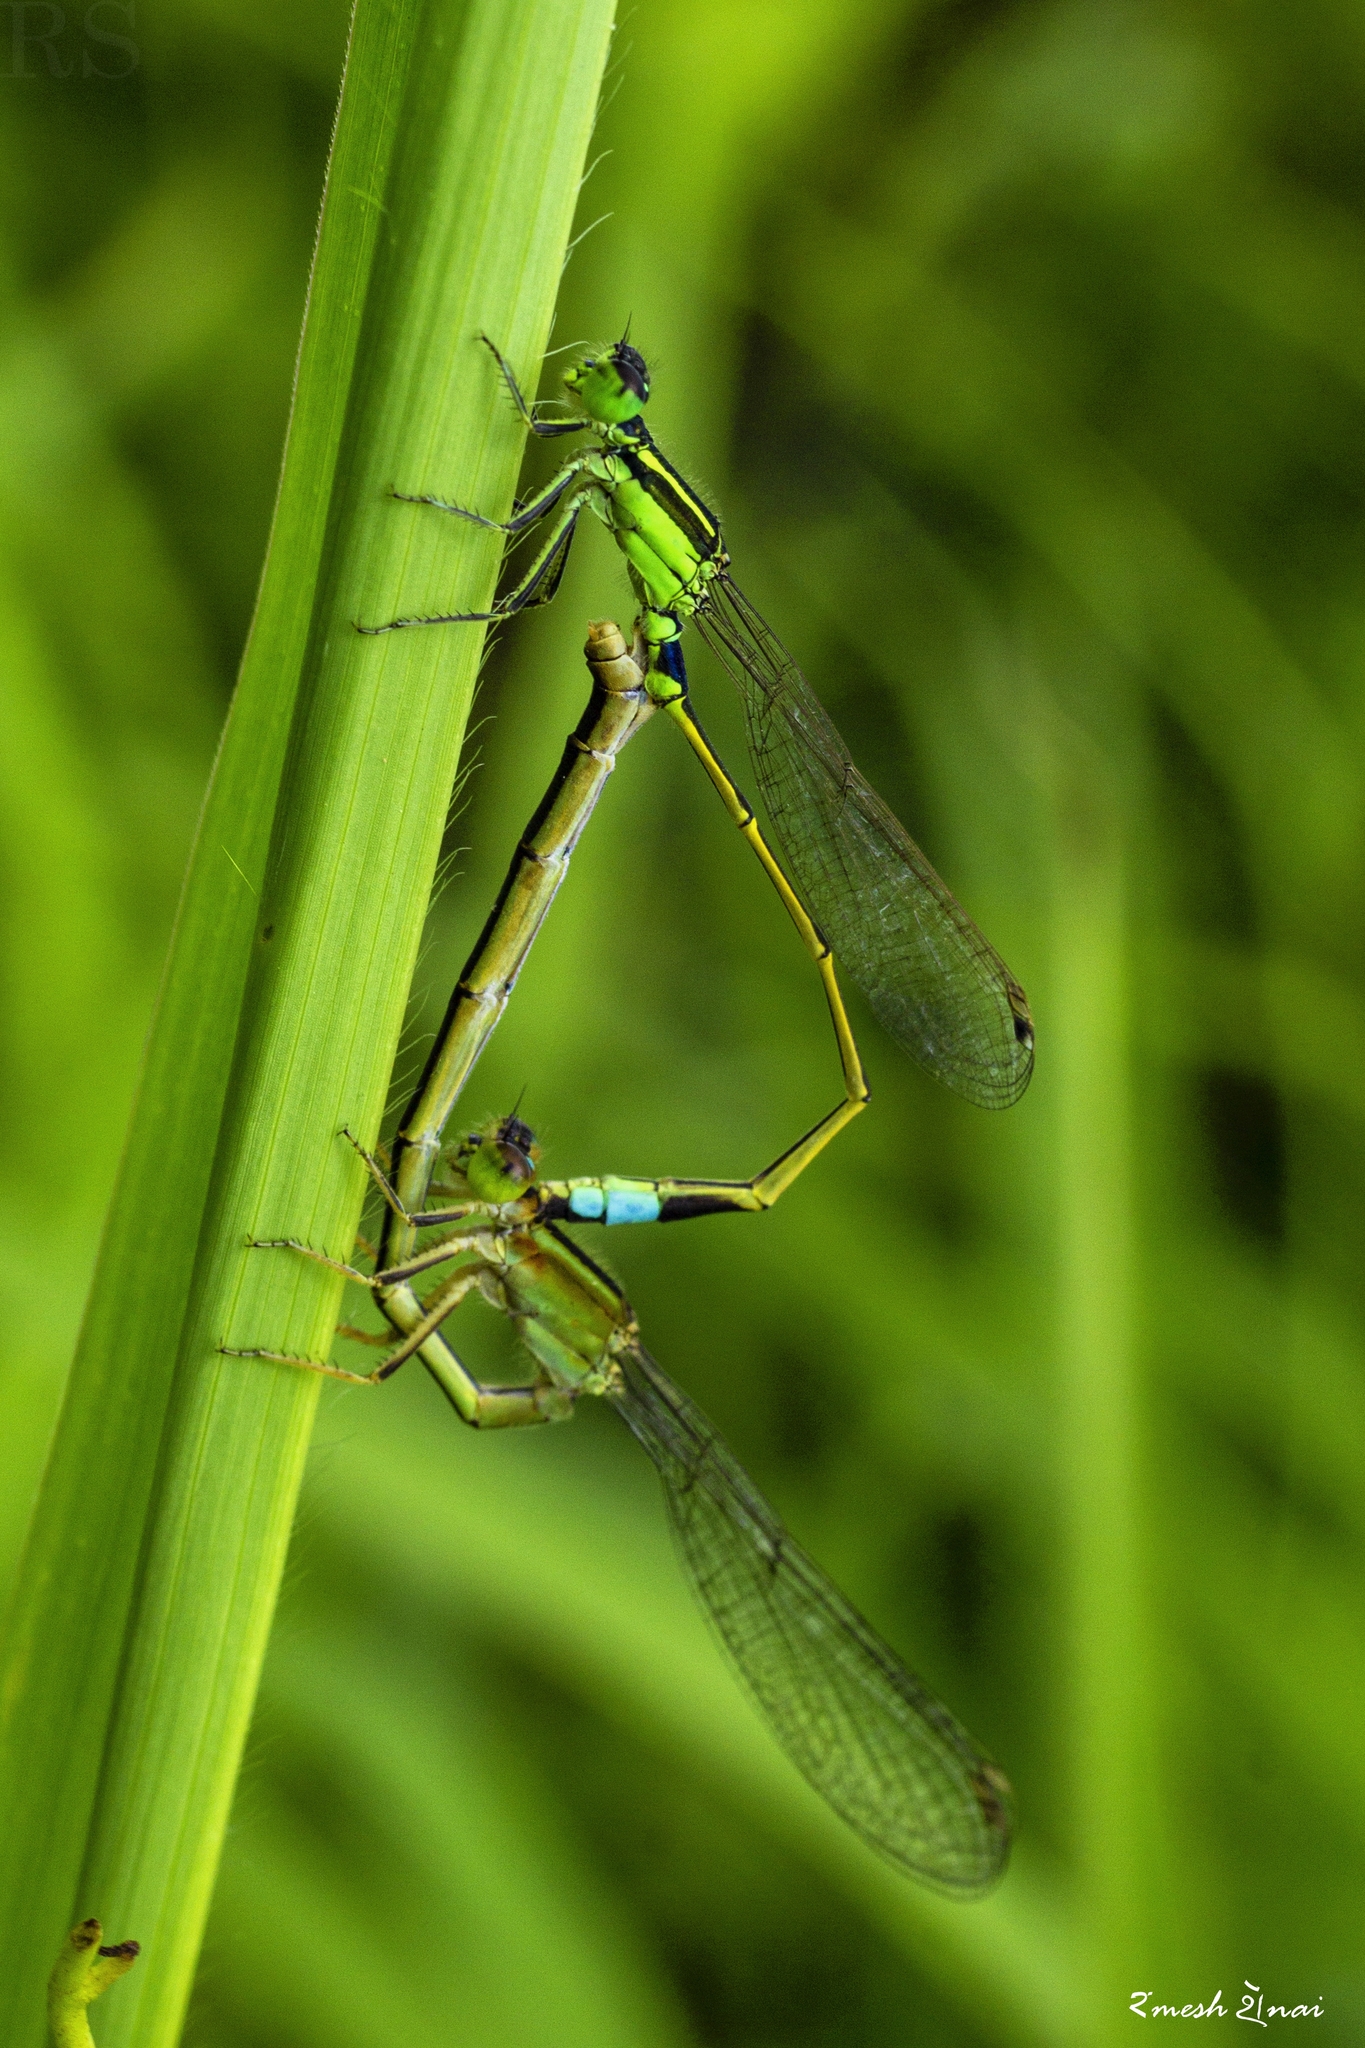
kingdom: Animalia
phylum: Arthropoda
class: Insecta
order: Odonata
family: Coenagrionidae
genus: Ischnura
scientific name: Ischnura senegalensis
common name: Tropical bluetail
